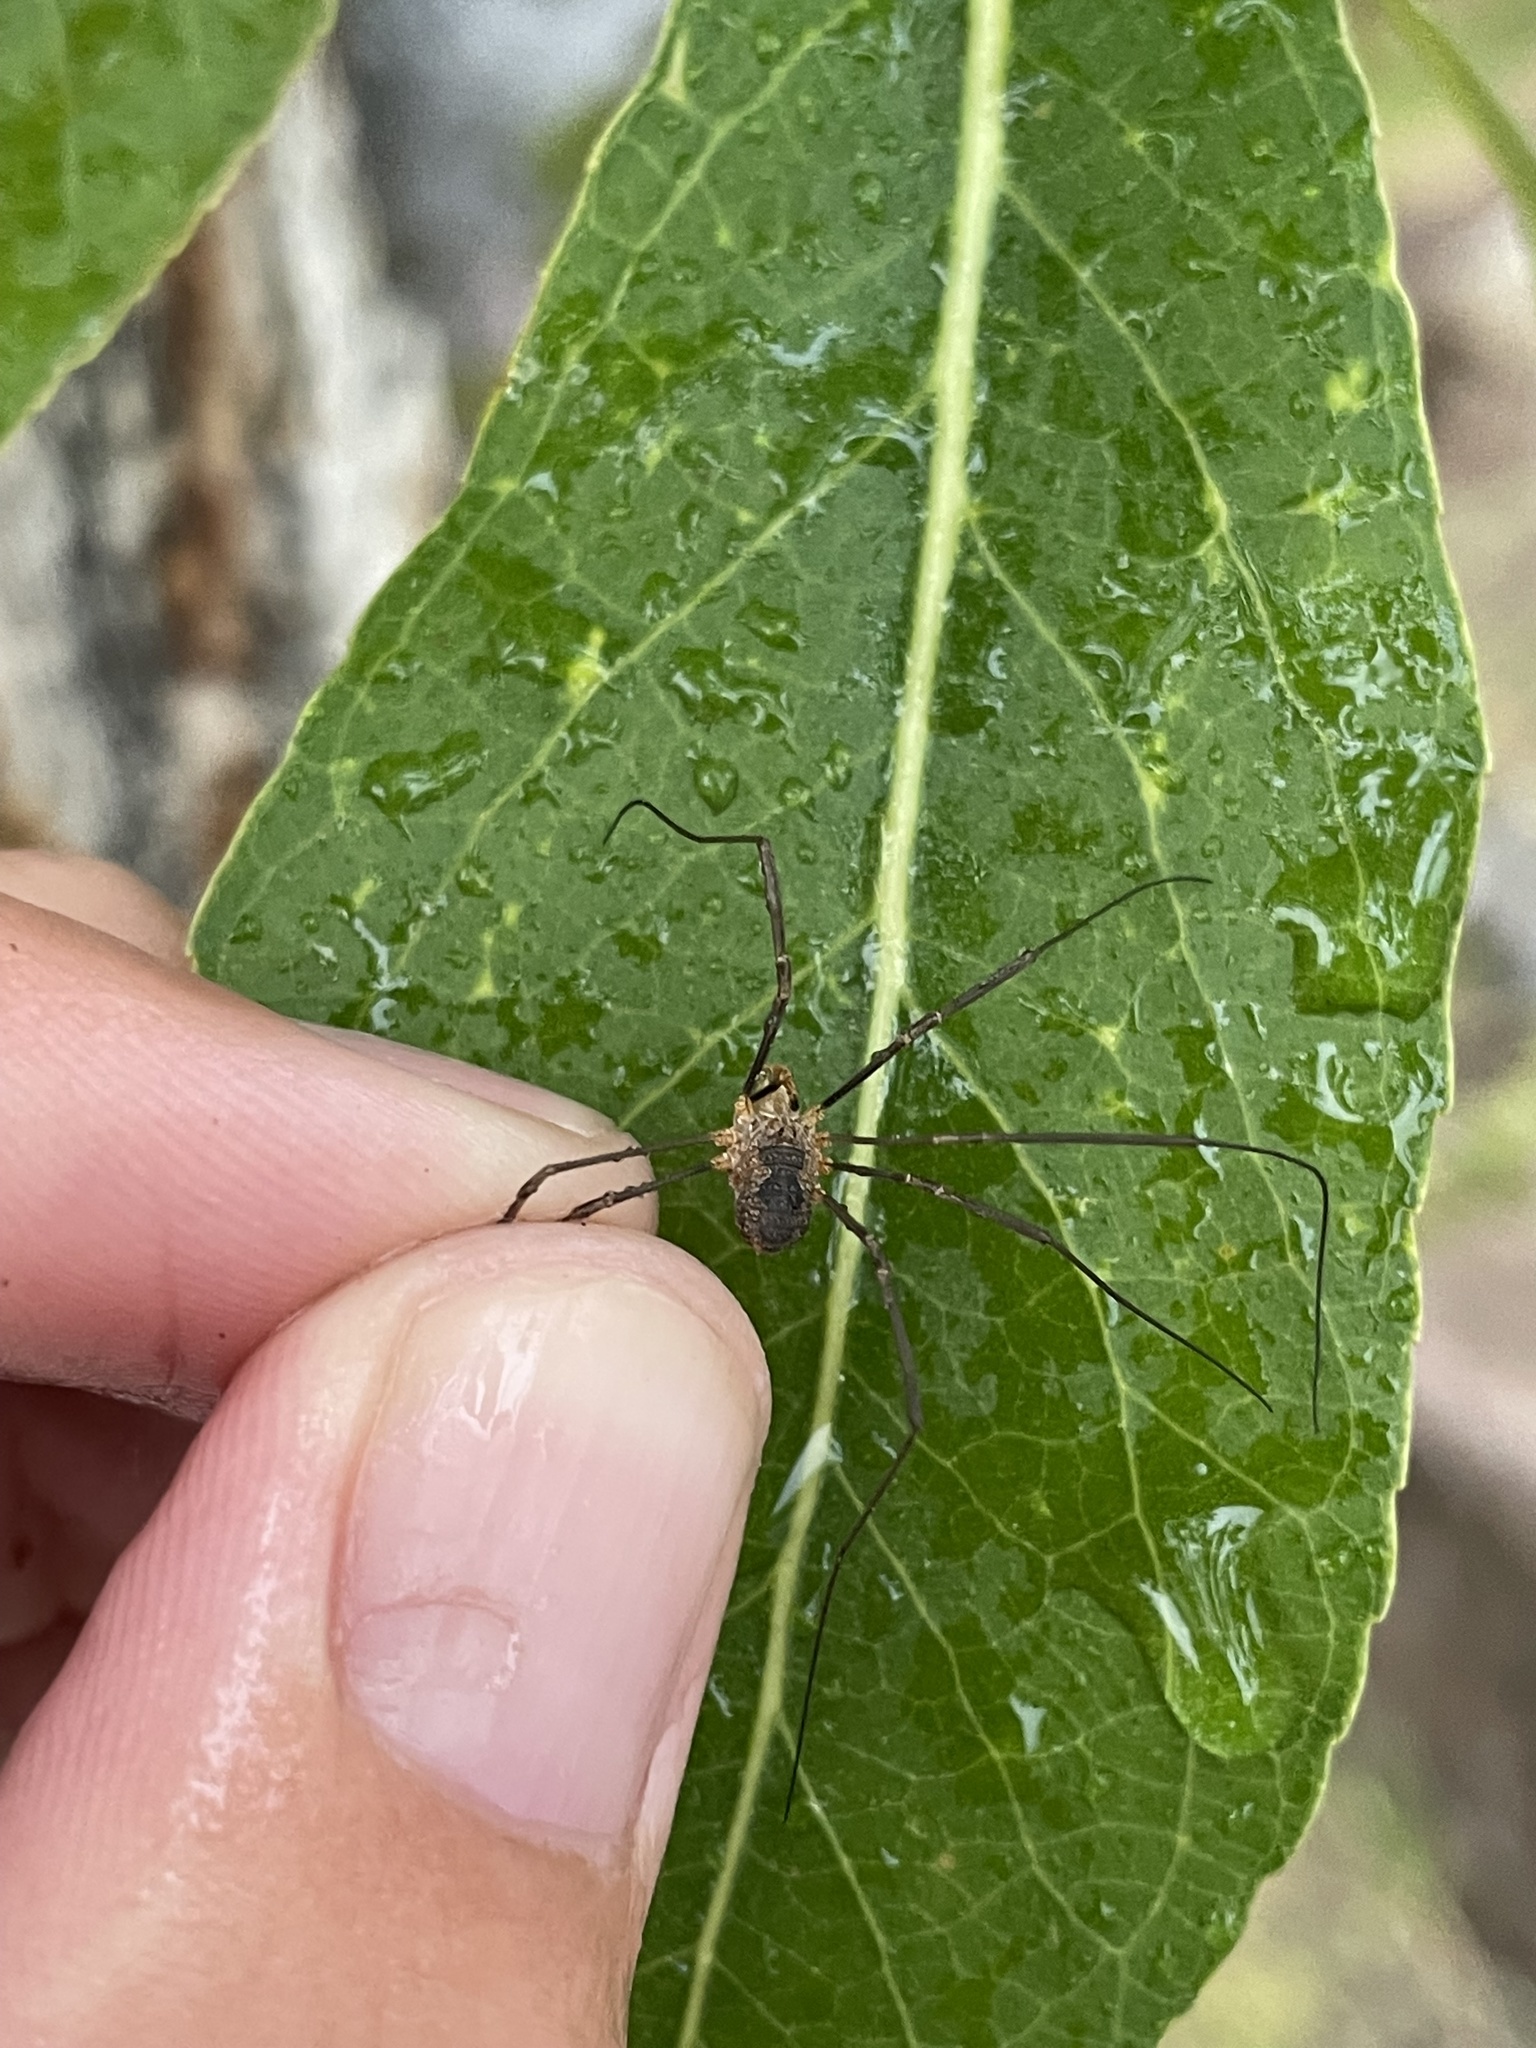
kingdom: Animalia
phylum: Arthropoda
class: Arachnida
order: Opiliones
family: Phalangiidae
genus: Phalangium
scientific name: Phalangium opilio
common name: Daddy longleg
